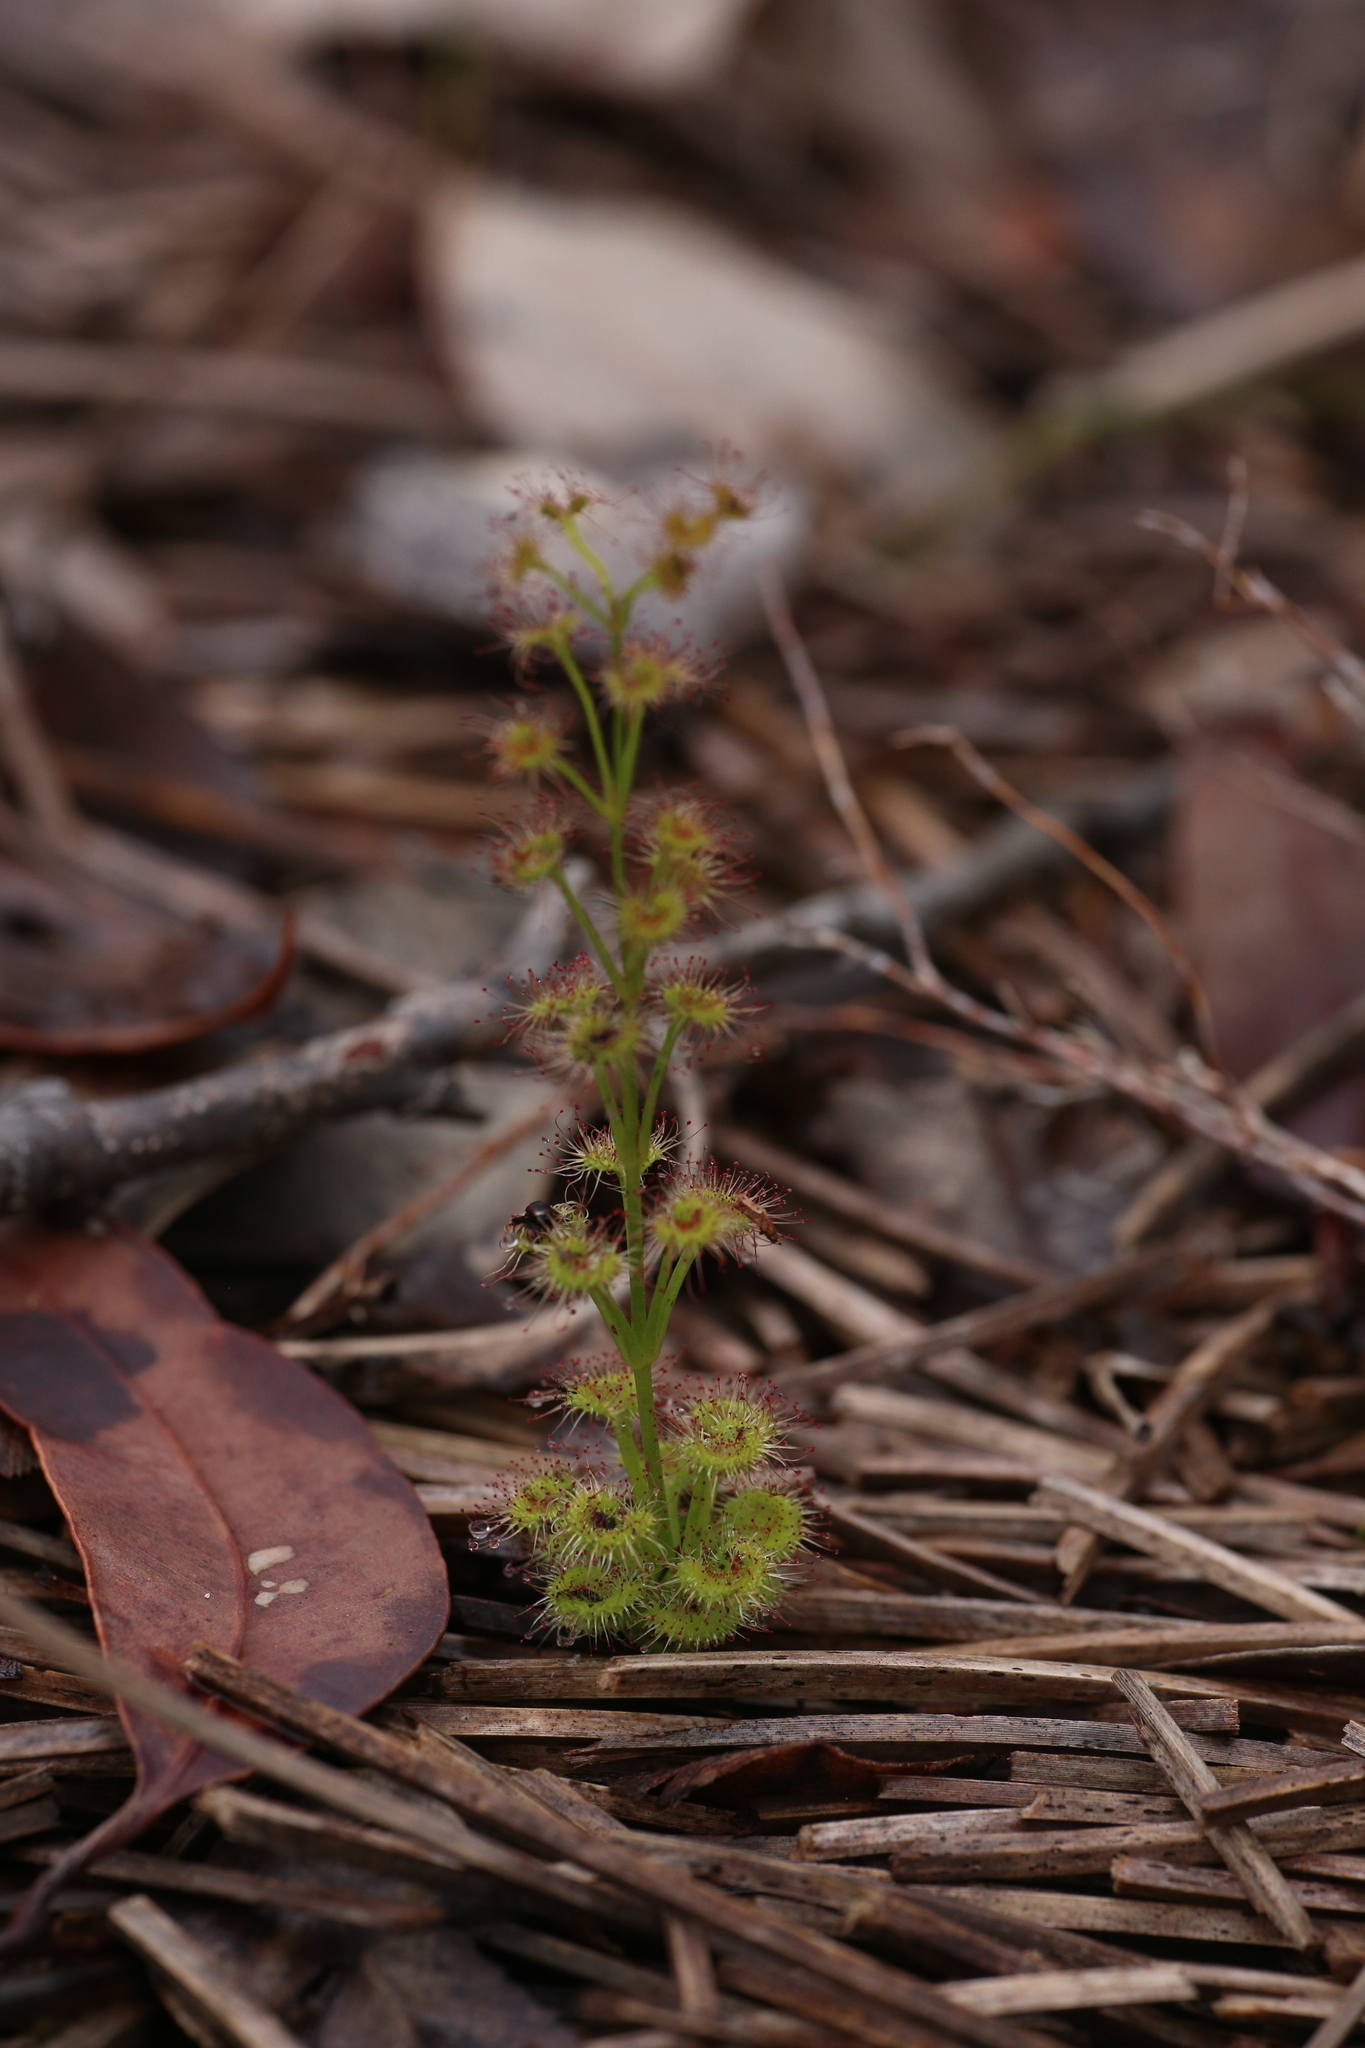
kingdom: Plantae
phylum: Tracheophyta
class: Magnoliopsida
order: Caryophyllales
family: Droseraceae
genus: Drosera
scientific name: Drosera stolonifera
